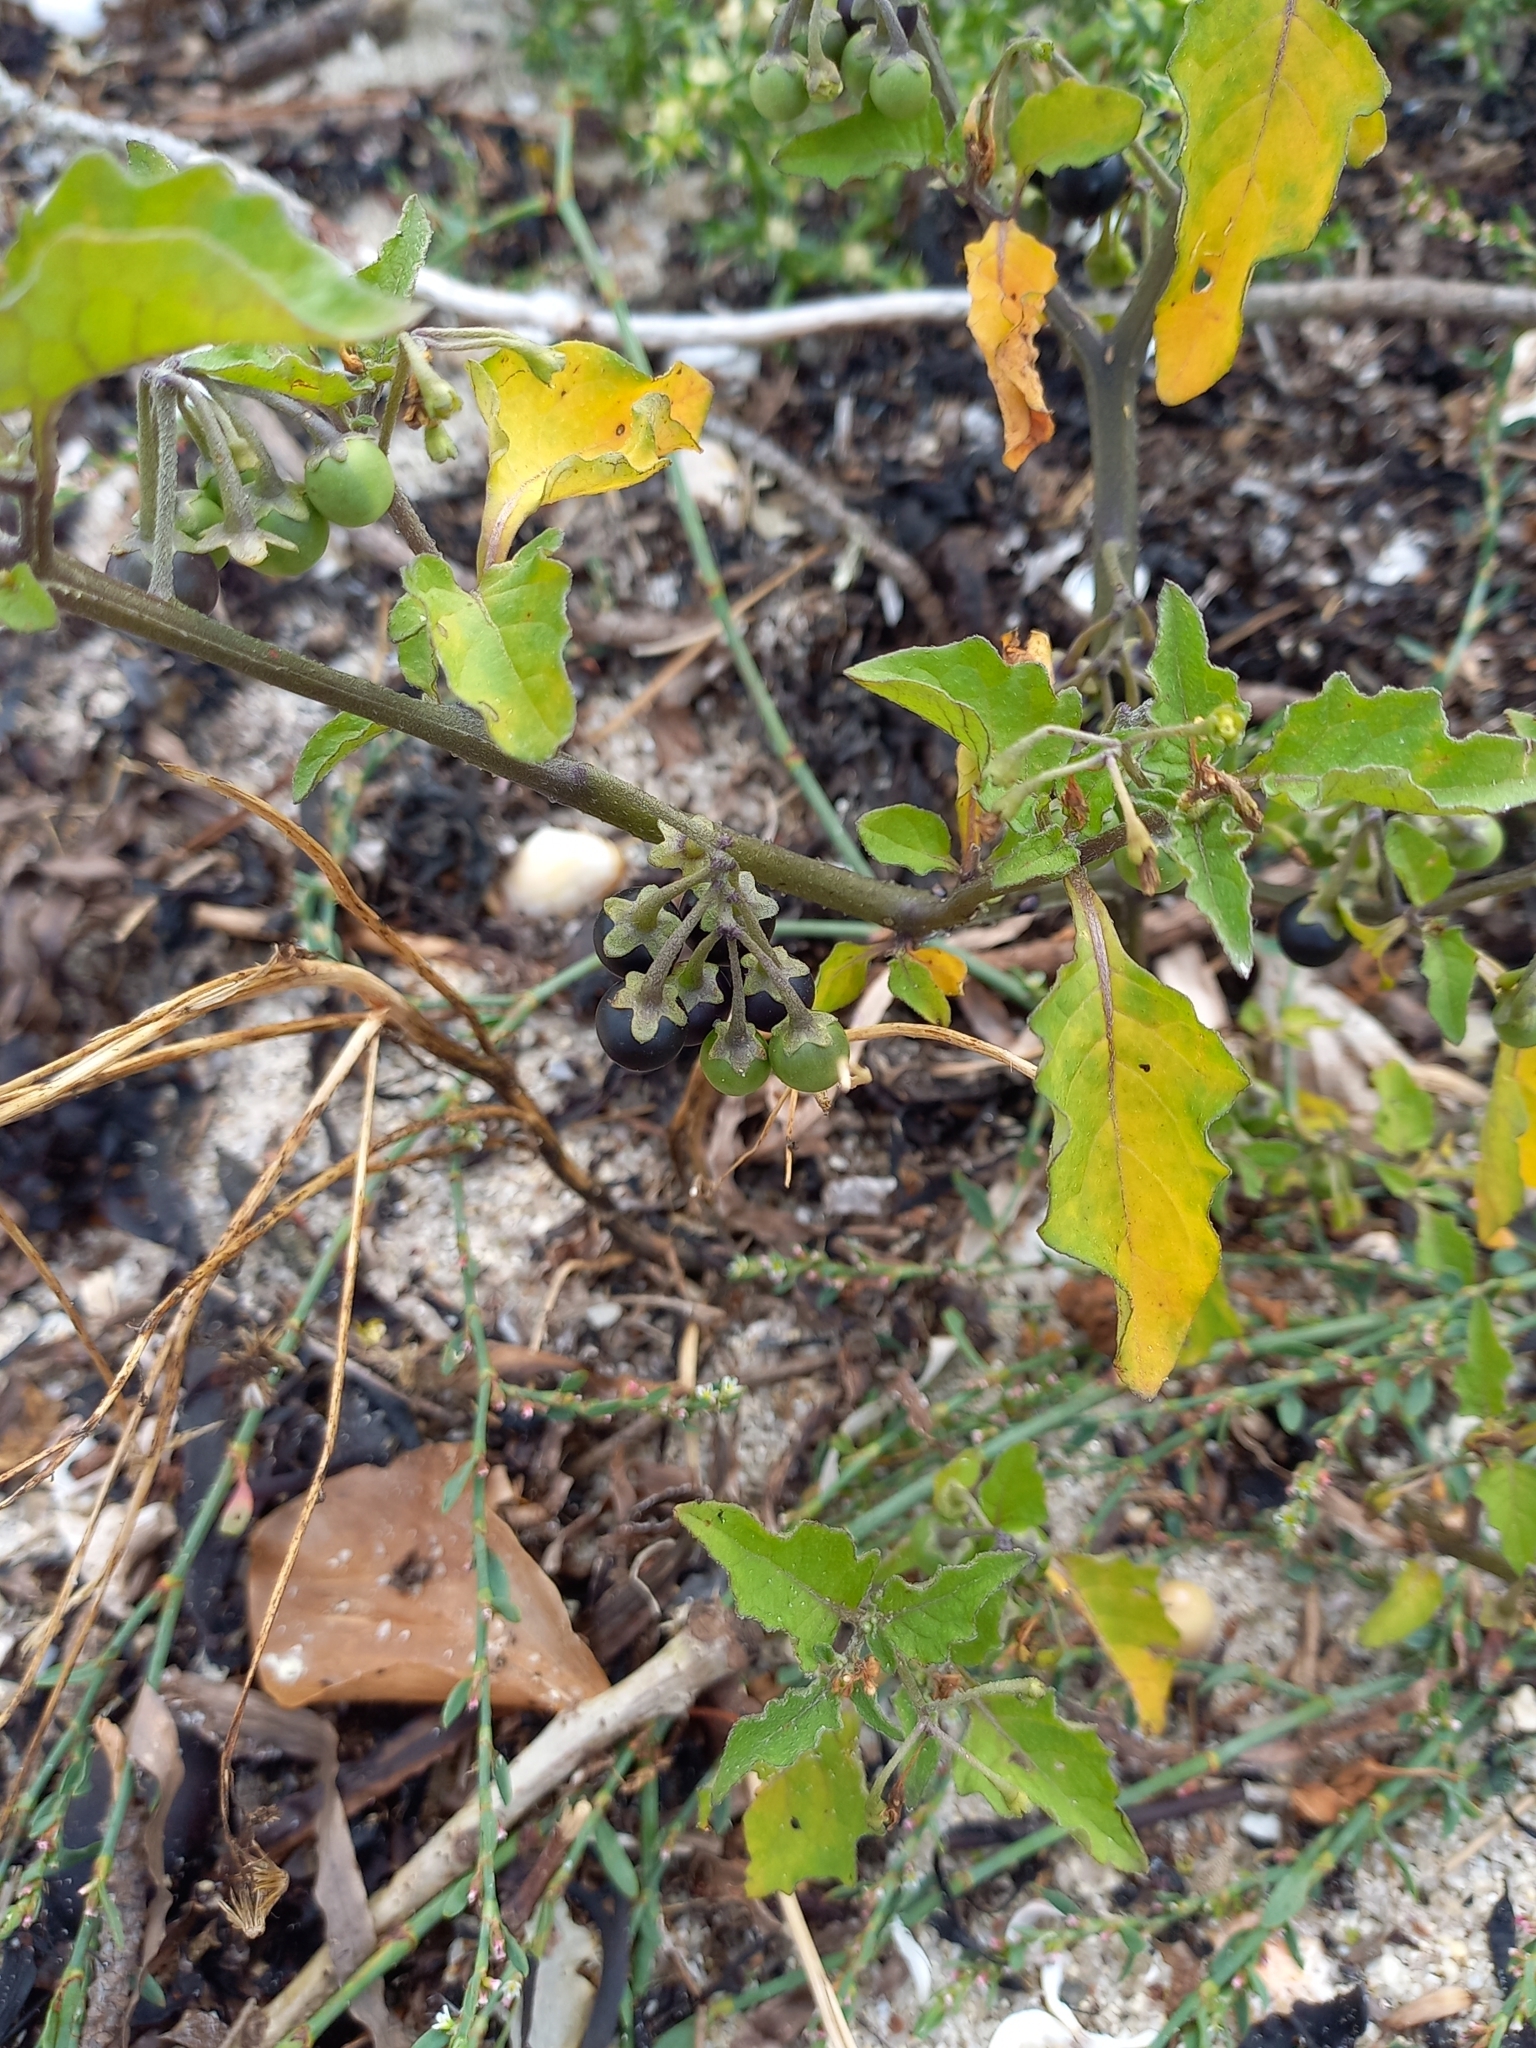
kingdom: Plantae
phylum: Tracheophyta
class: Magnoliopsida
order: Solanales
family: Solanaceae
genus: Solanum
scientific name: Solanum nigrum
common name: Black nightshade
